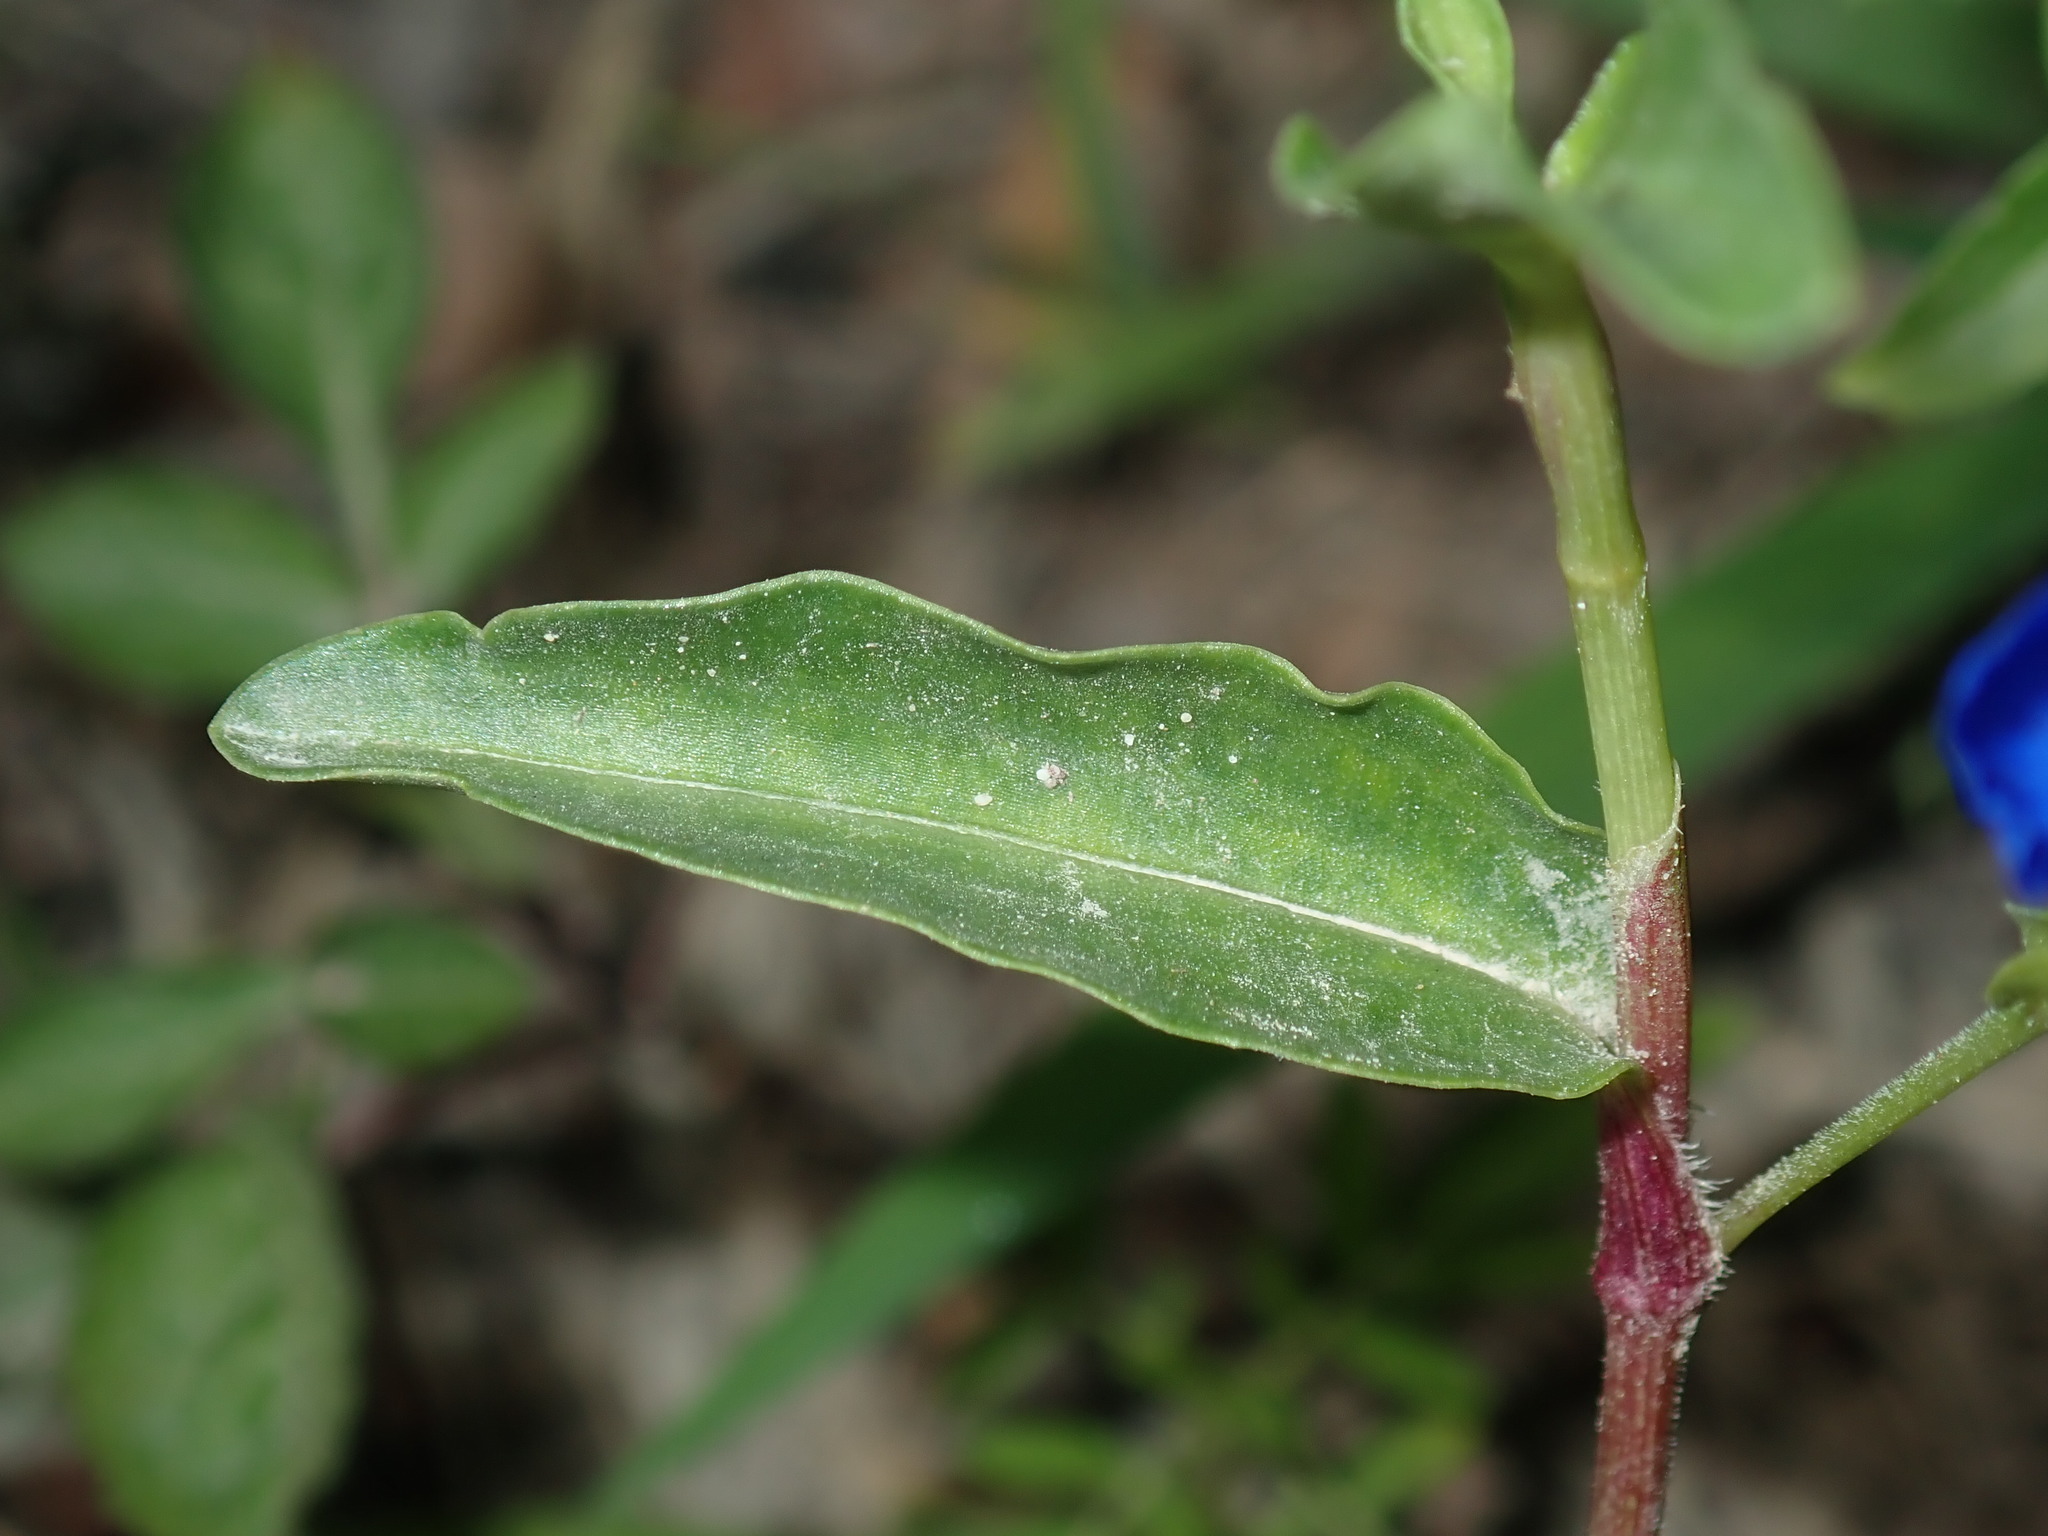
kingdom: Plantae
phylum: Tracheophyta
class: Liliopsida
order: Commelinales
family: Commelinaceae
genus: Commelina
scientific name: Commelina cyanea
